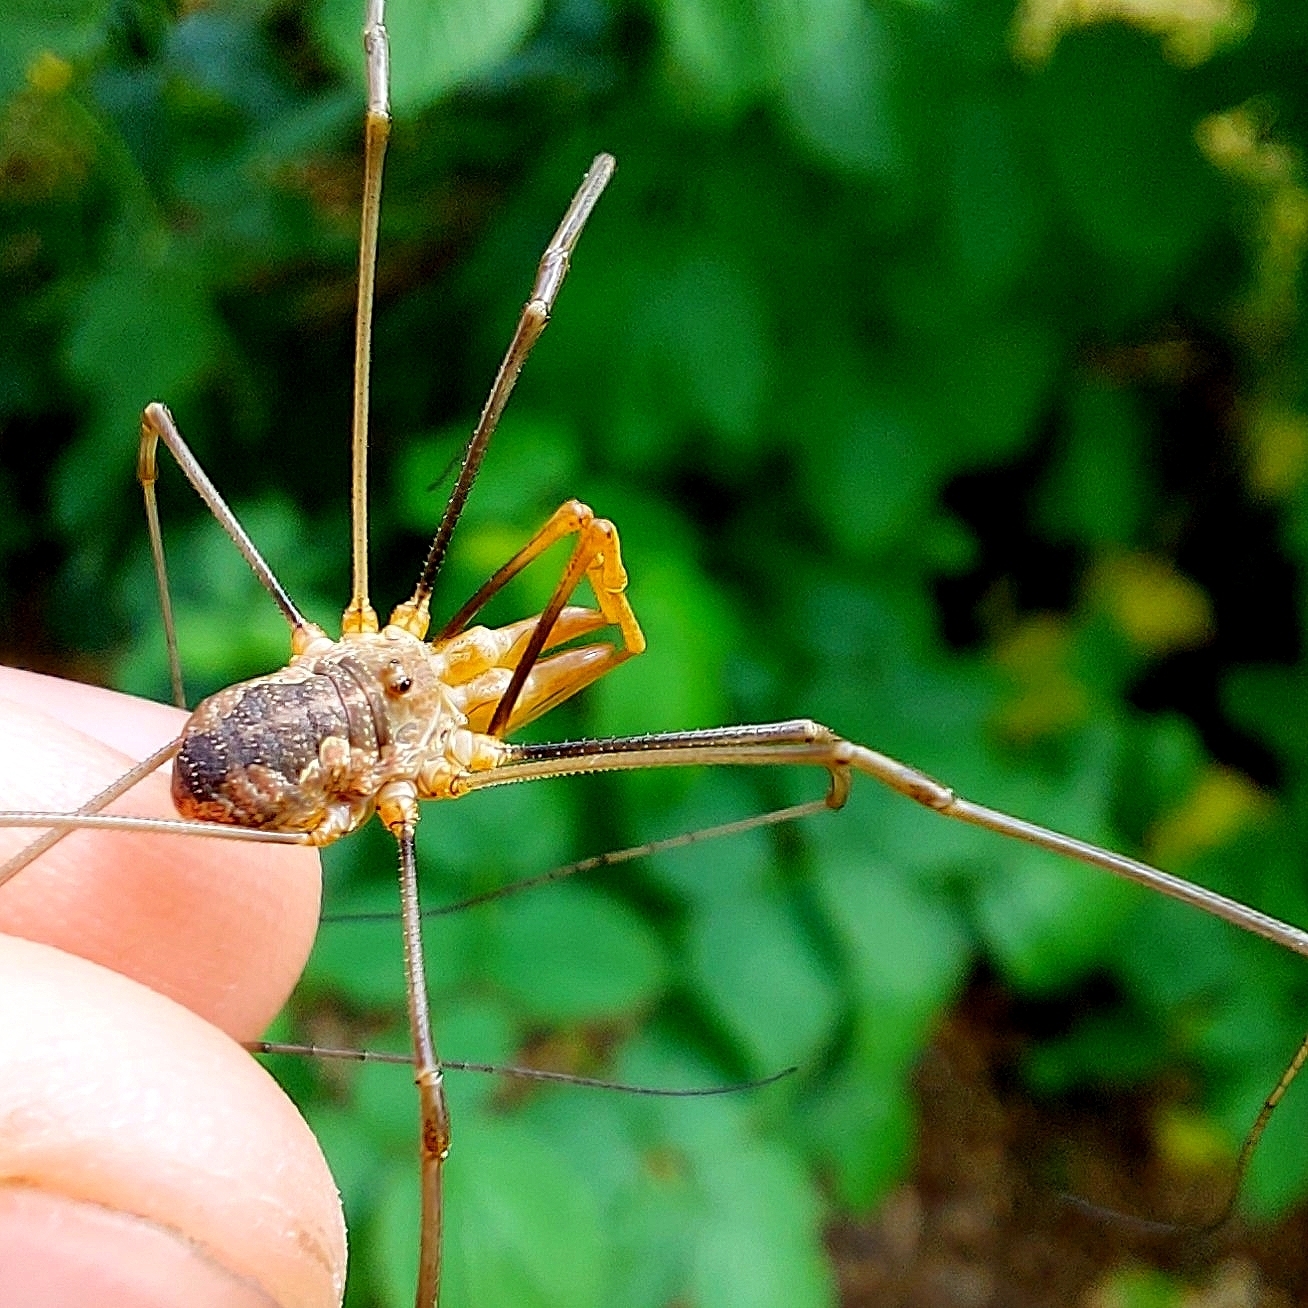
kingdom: Animalia
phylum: Arthropoda
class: Arachnida
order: Opiliones
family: Phalangiidae
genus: Phalangium
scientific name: Phalangium opilio
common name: Daddy longleg
